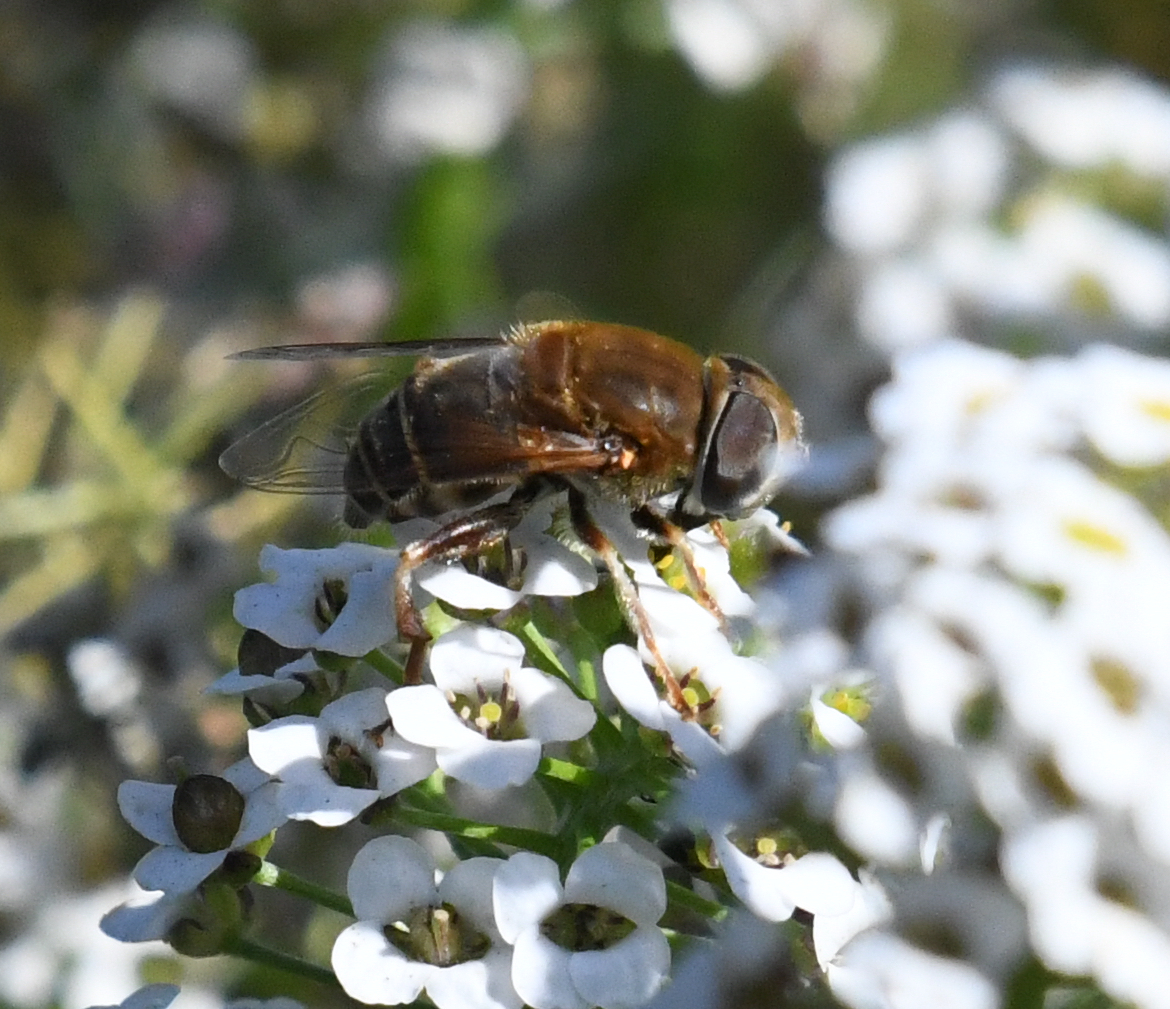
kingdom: Animalia
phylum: Arthropoda
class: Insecta
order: Diptera
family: Syrphidae
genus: Palpada
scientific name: Palpada mexicana
